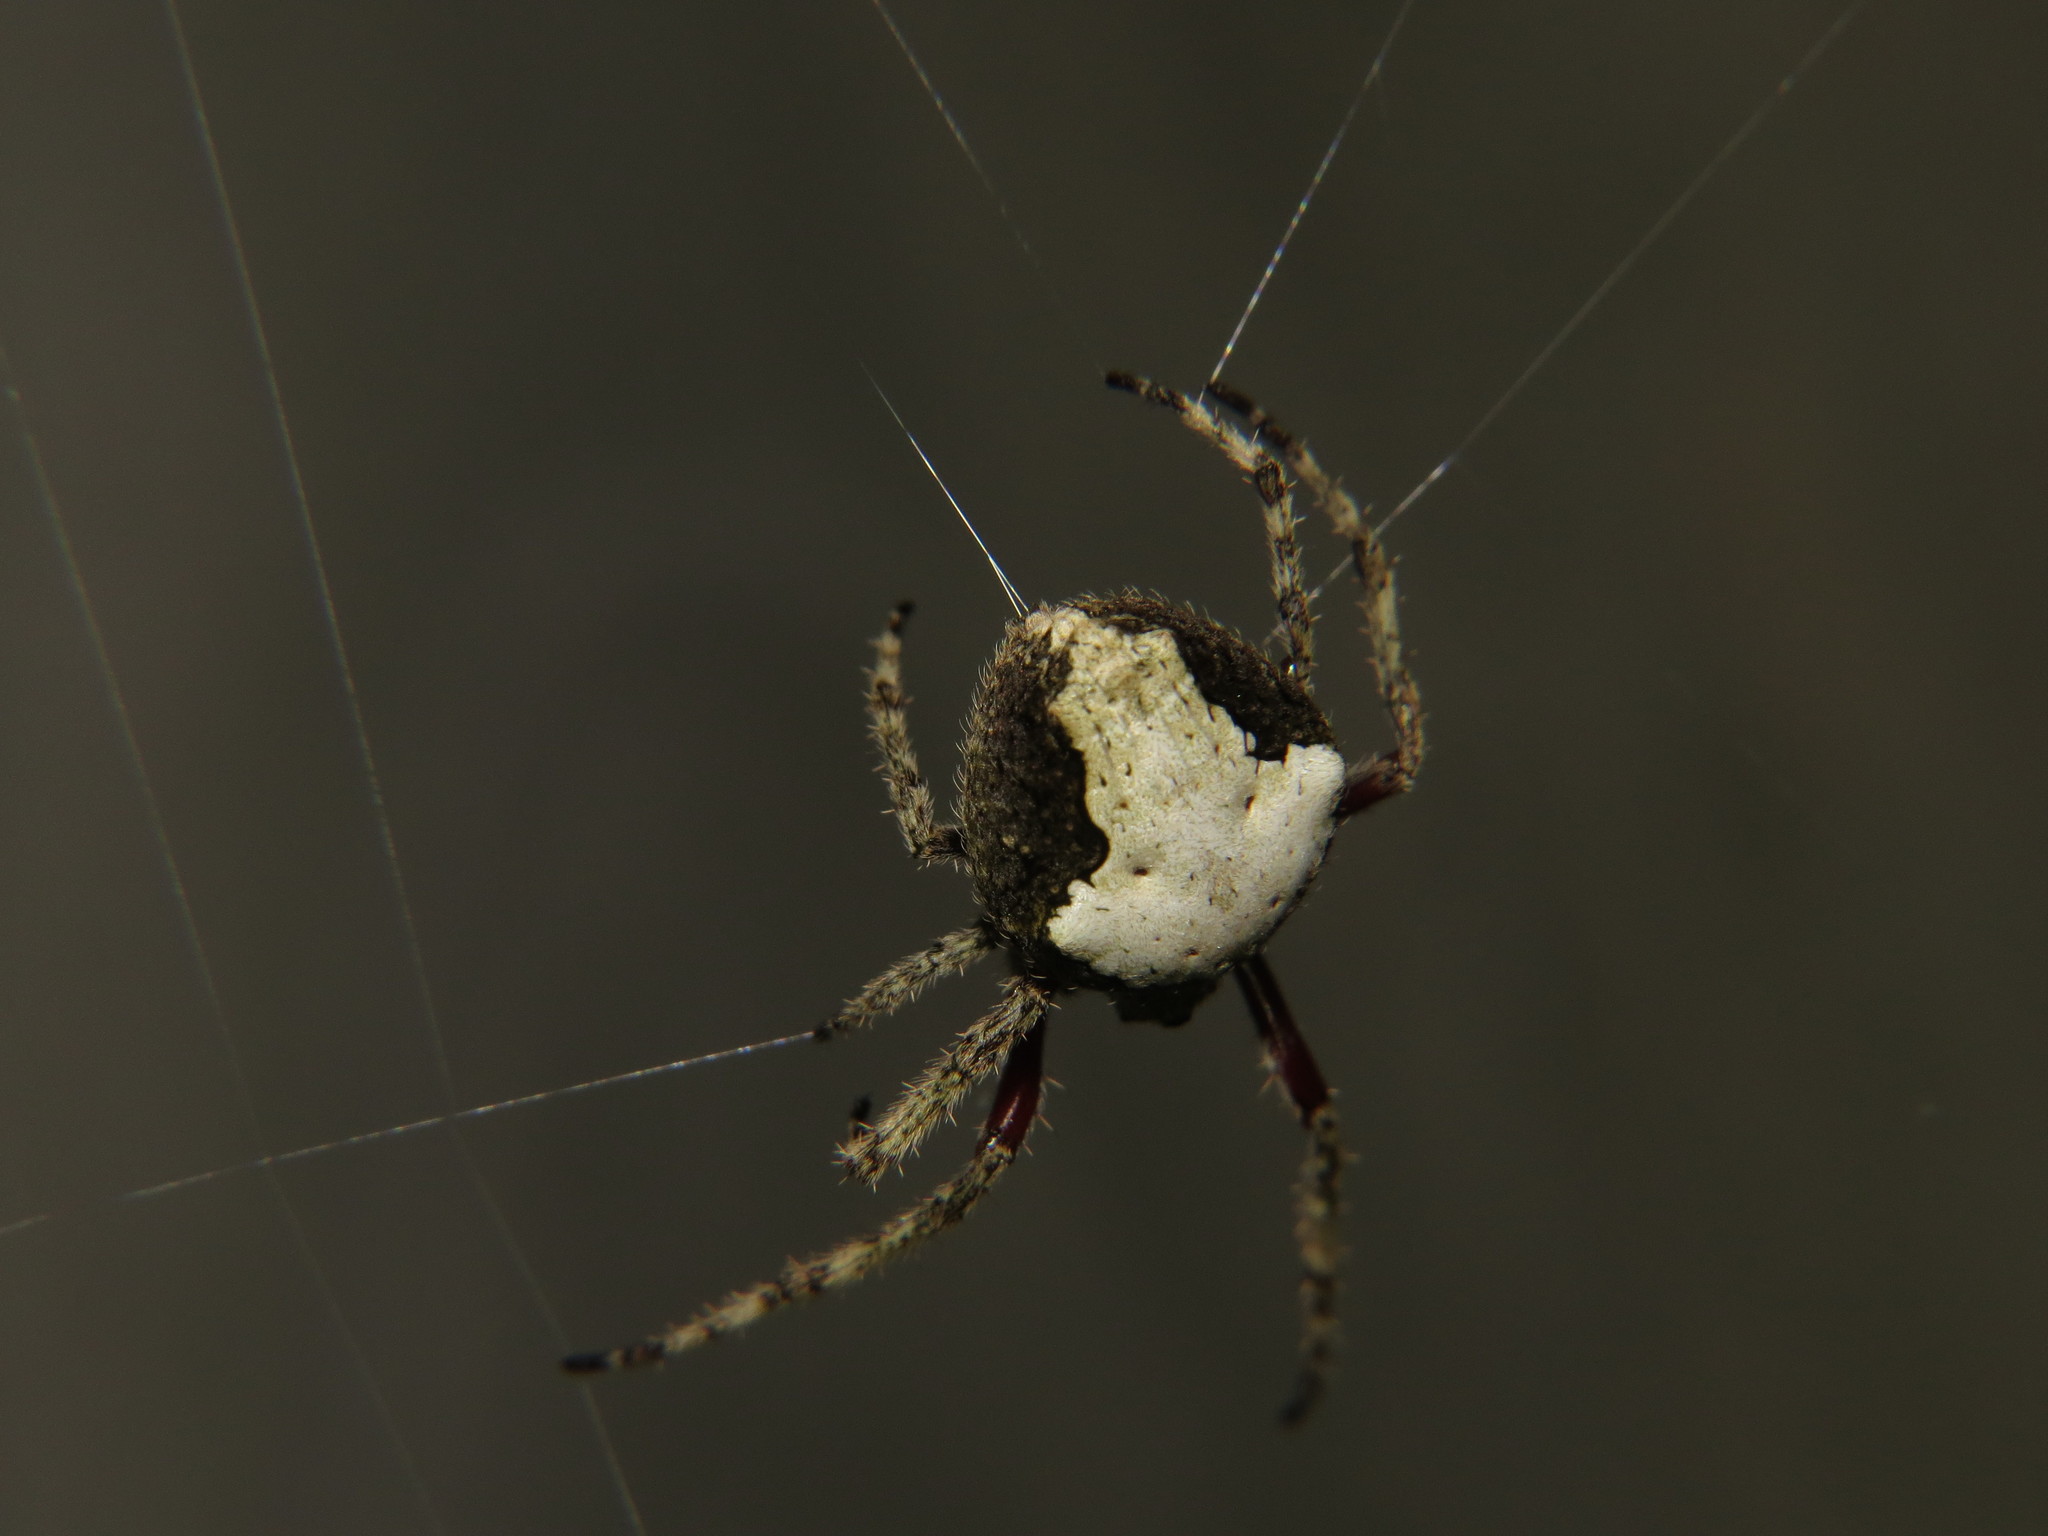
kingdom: Animalia
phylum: Arthropoda
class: Arachnida
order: Araneae
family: Araneidae
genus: Eriophora
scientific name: Eriophora pustulosa
